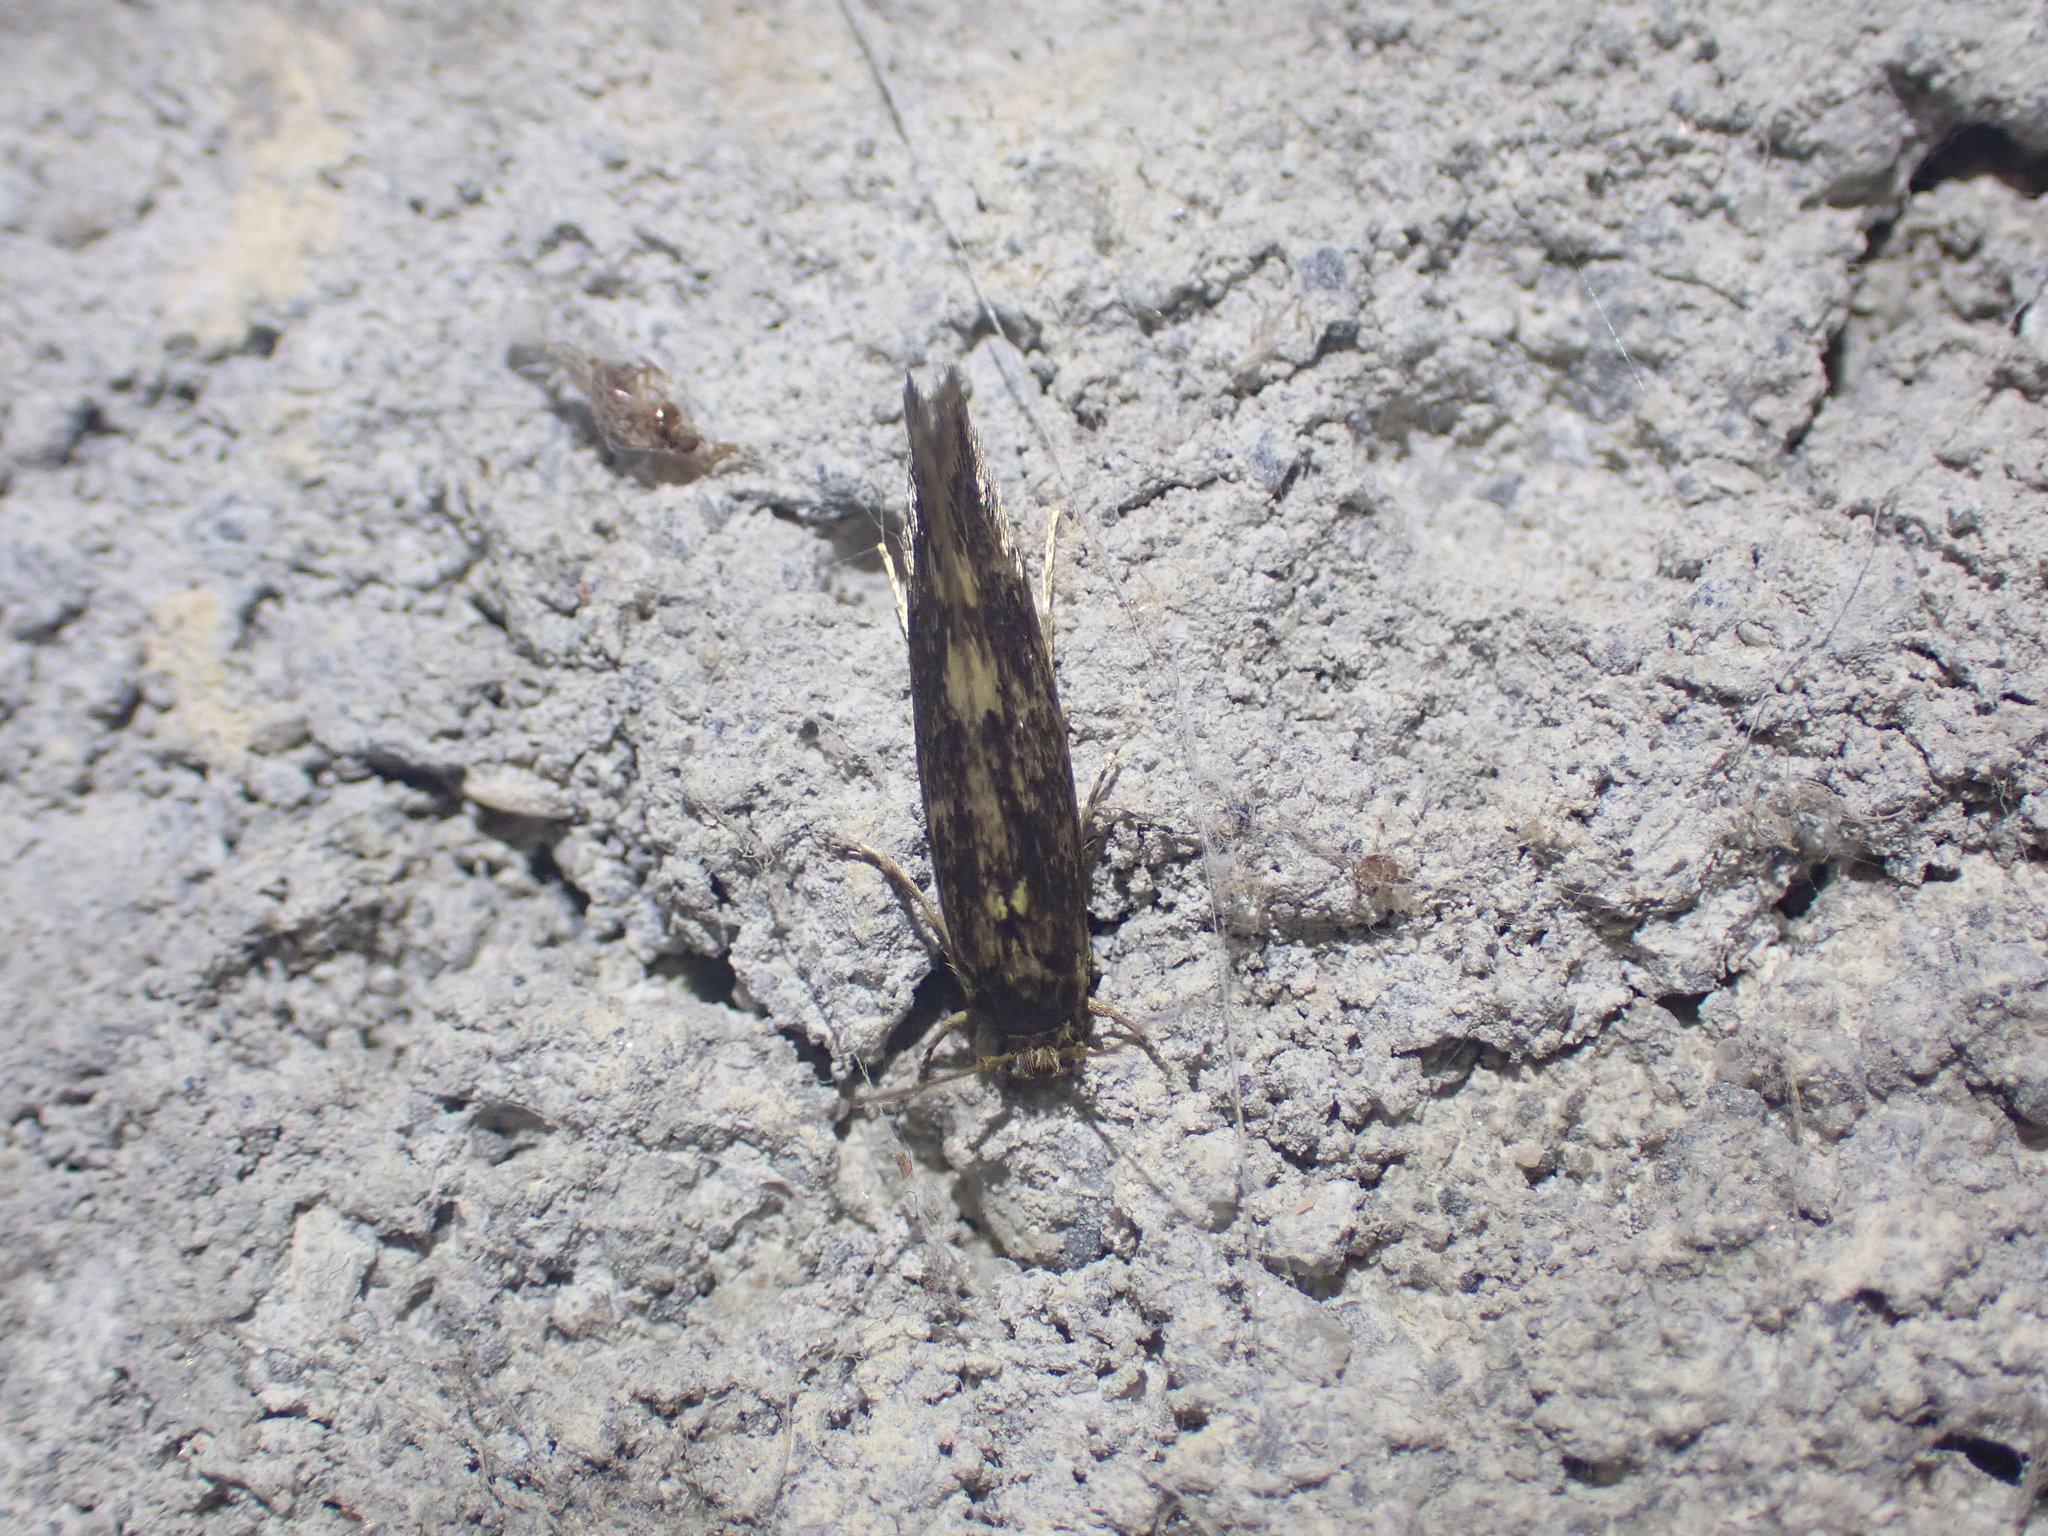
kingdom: Animalia
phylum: Arthropoda
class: Insecta
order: Lepidoptera
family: Tineidae
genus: Opogona
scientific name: Opogona omoscopa
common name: Moth
